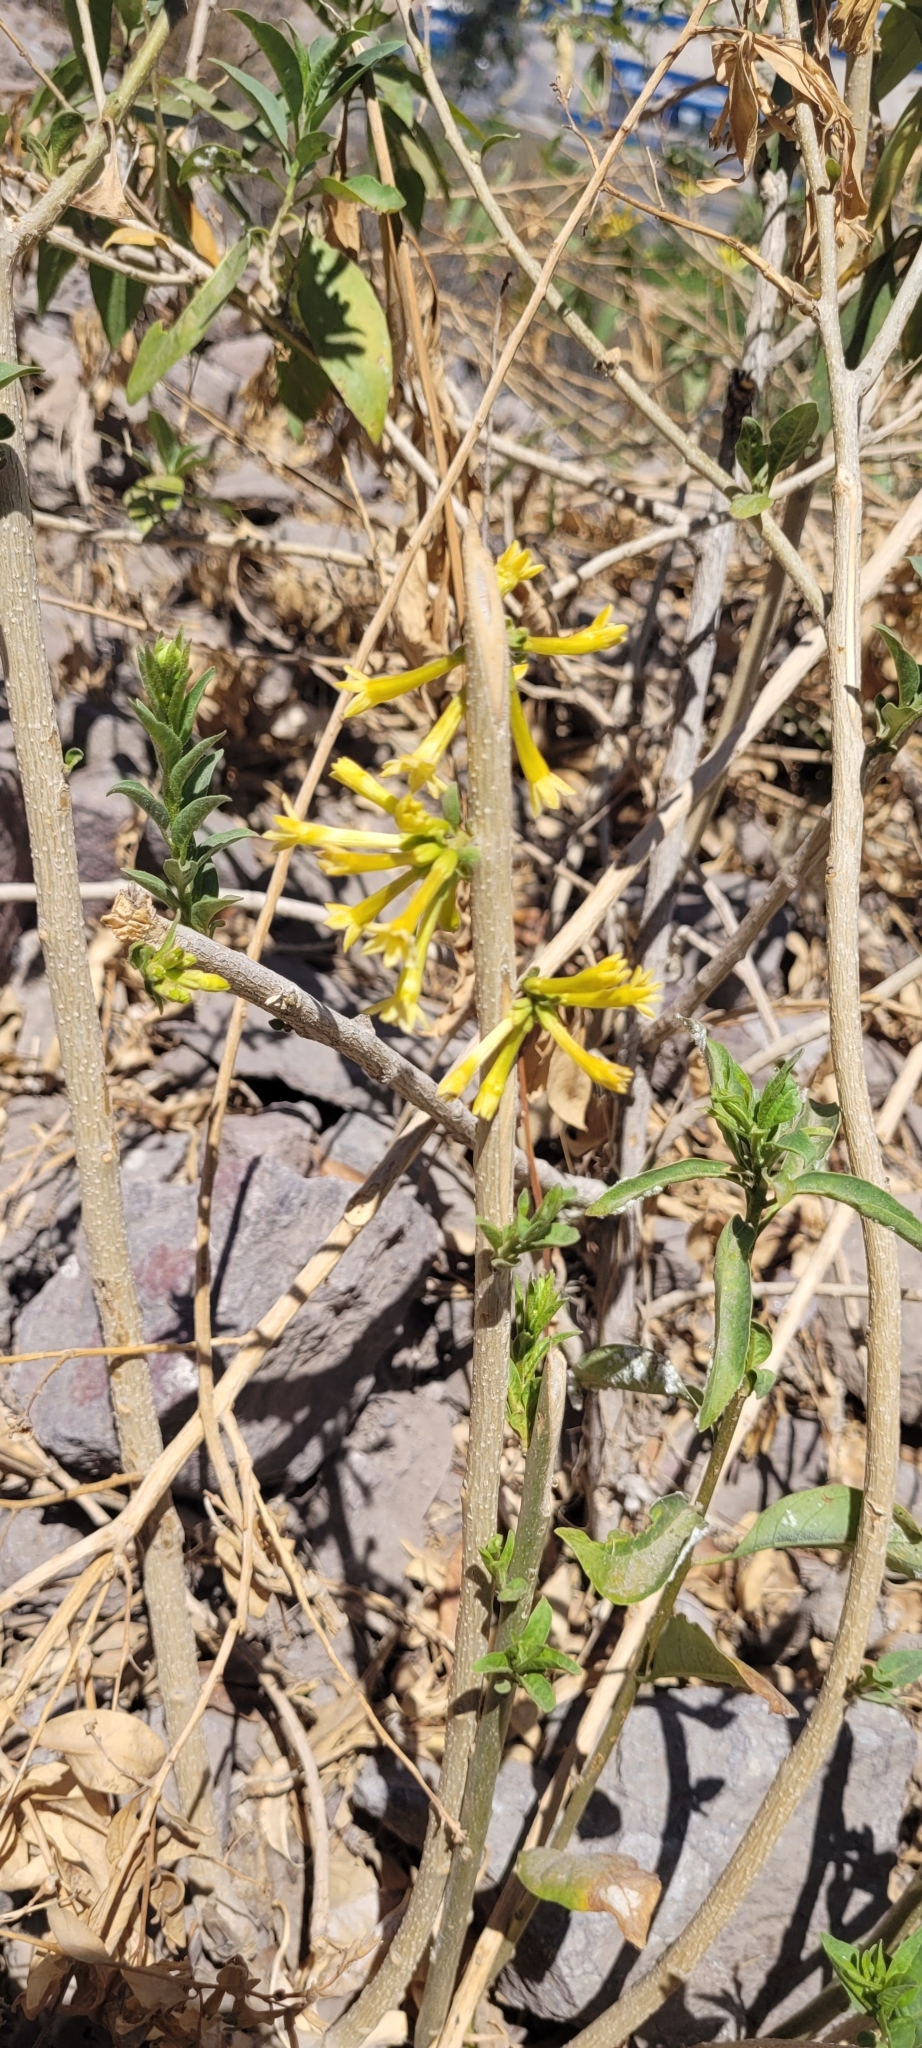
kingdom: Plantae
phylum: Tracheophyta
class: Magnoliopsida
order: Solanales
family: Solanaceae
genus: Cestrum
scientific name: Cestrum parqui
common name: Chilean cestrum
